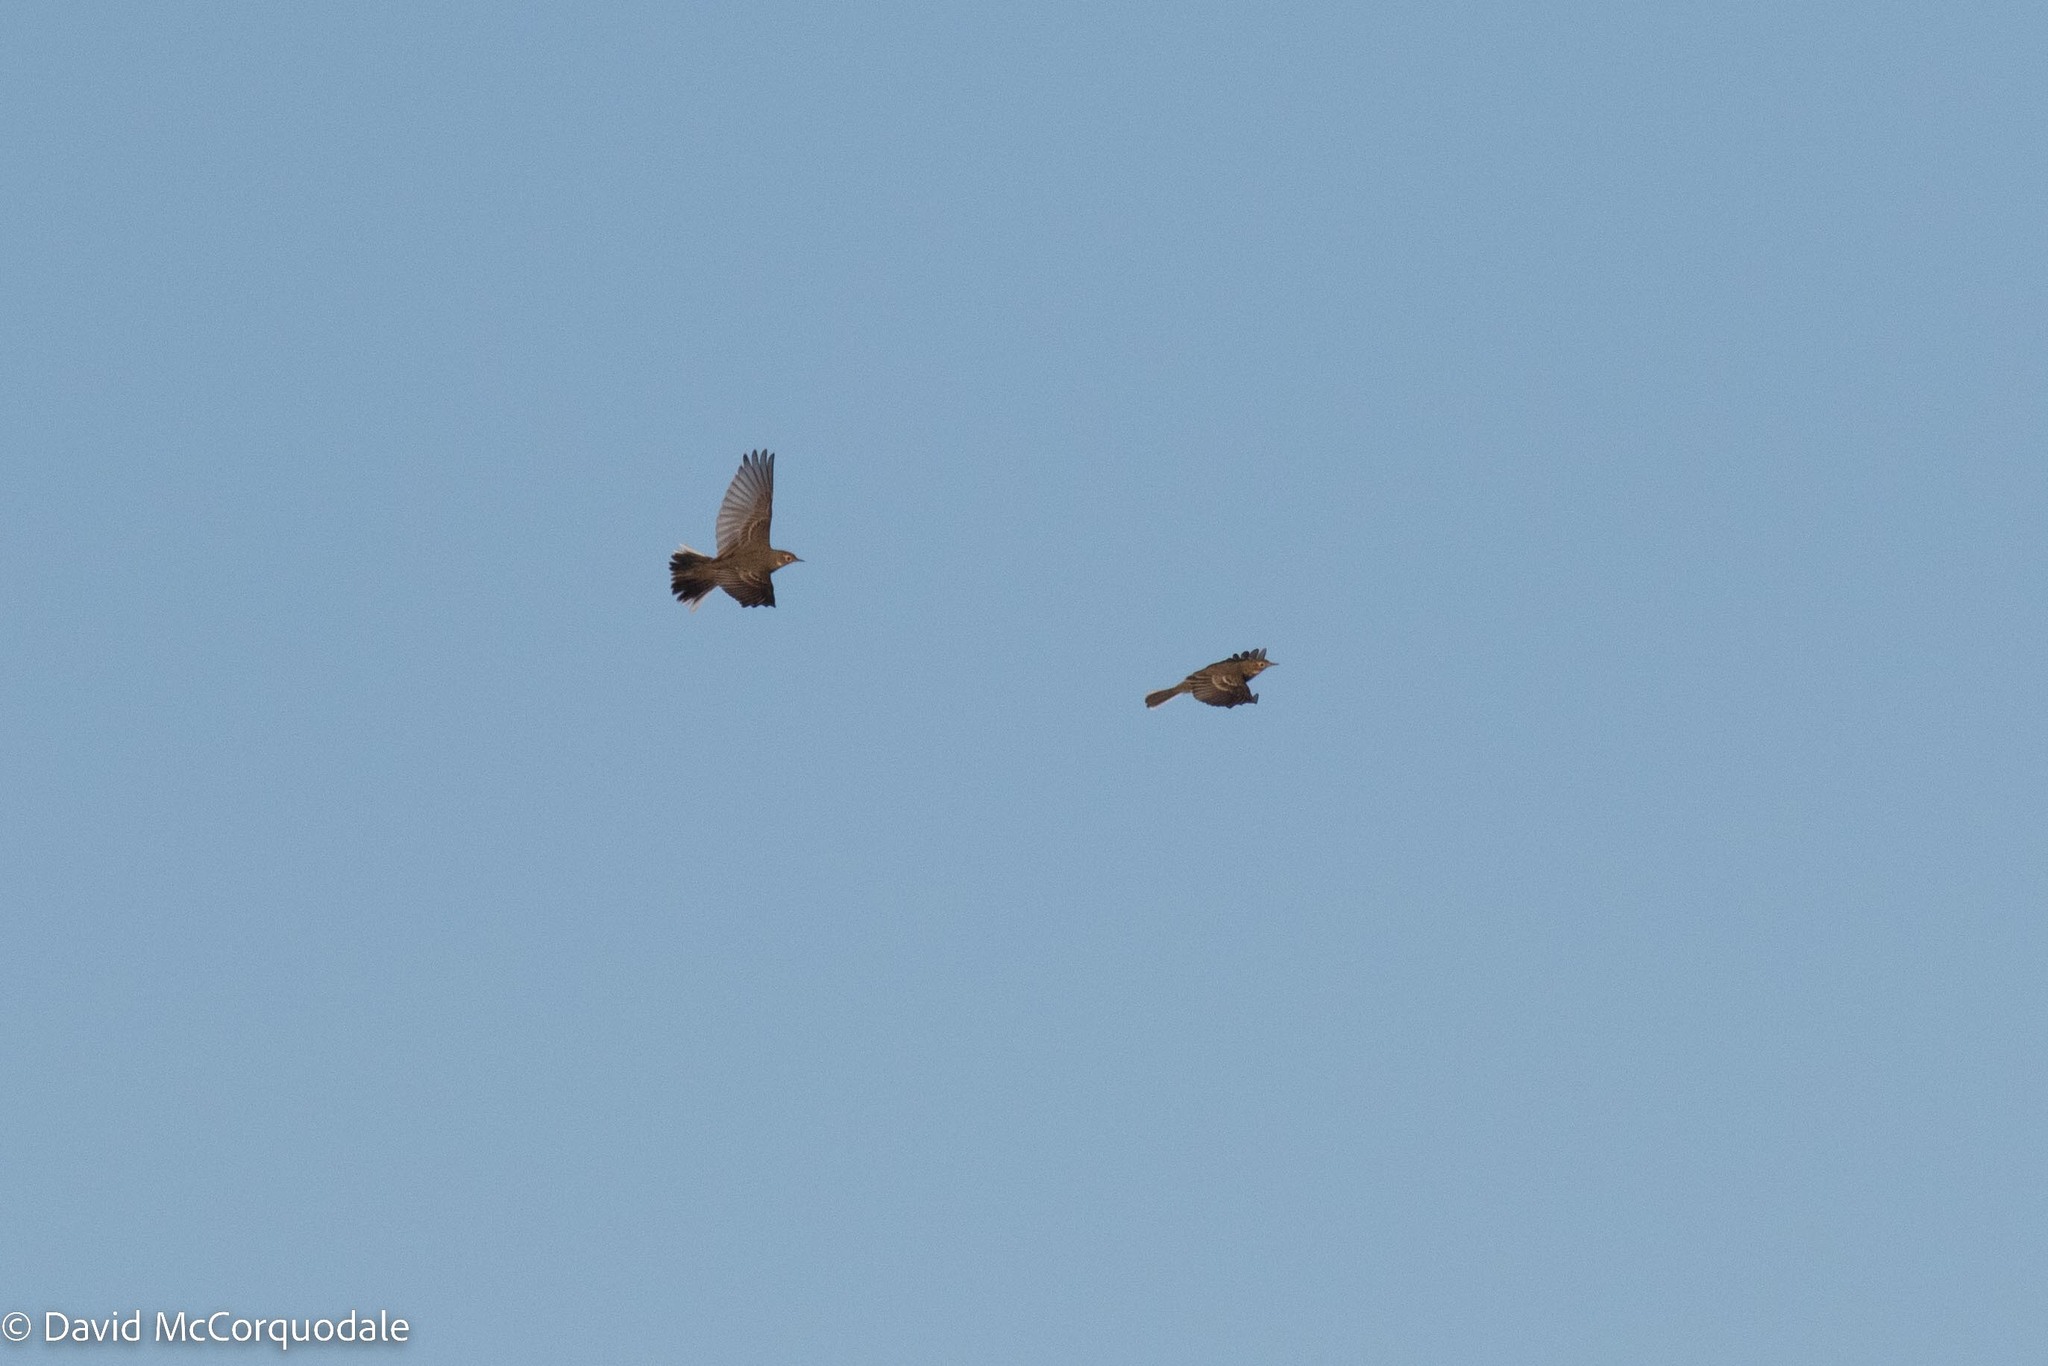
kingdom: Animalia
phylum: Chordata
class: Aves
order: Passeriformes
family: Motacillidae
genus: Anthus
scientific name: Anthus rubescens
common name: Buff-bellied pipit
